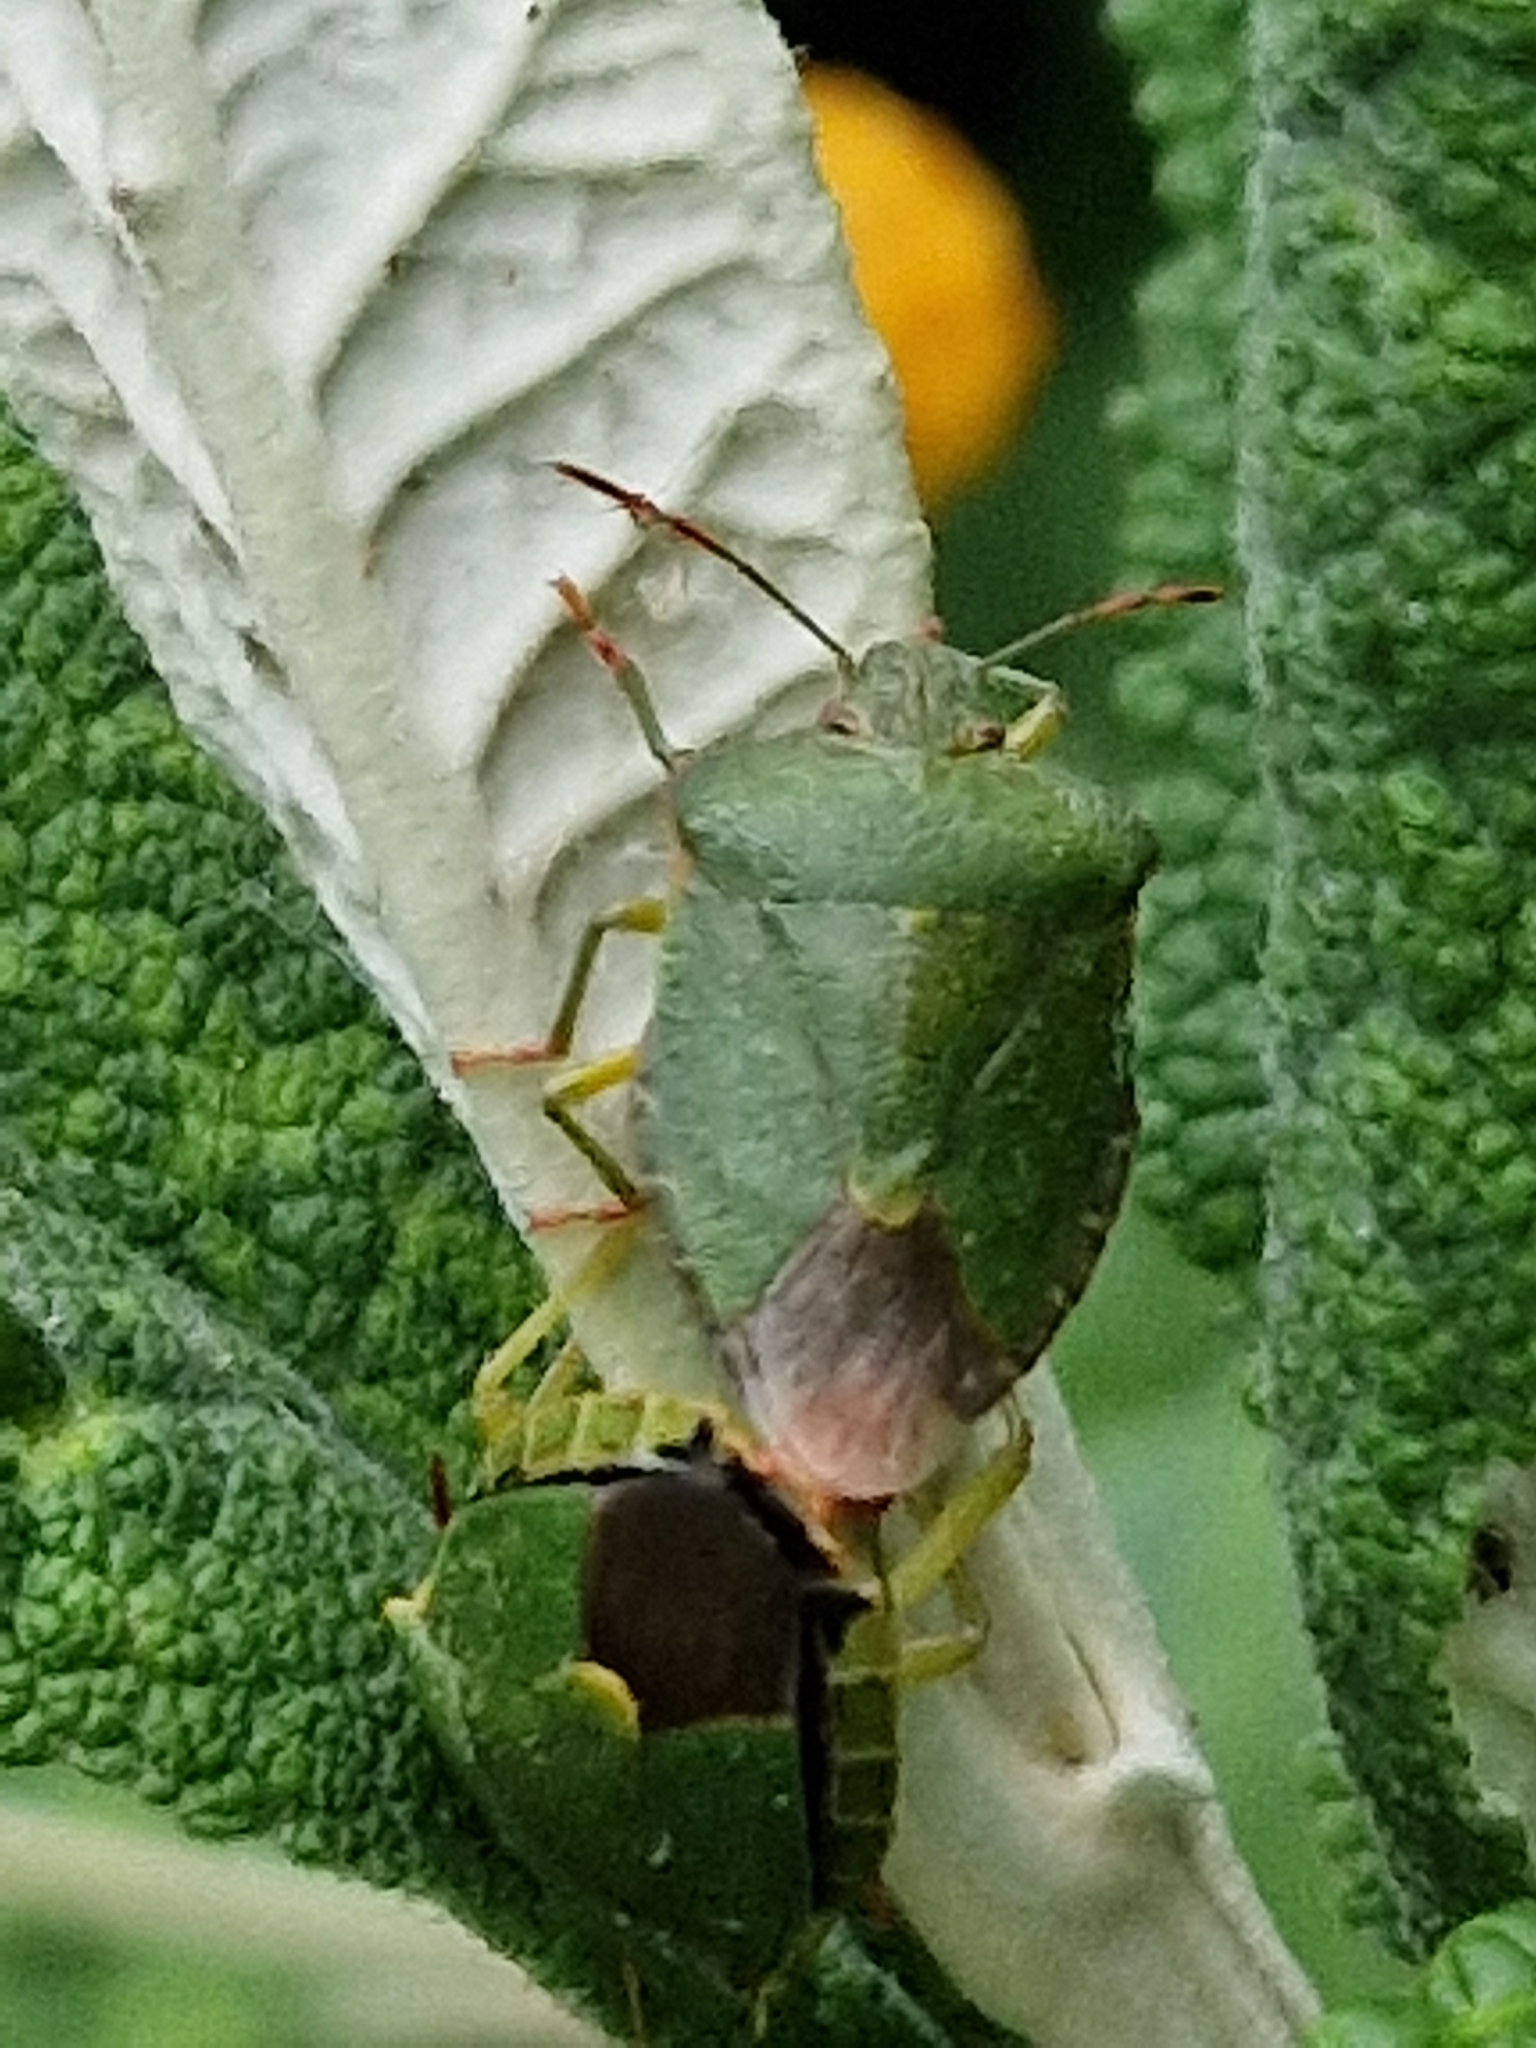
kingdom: Animalia
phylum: Arthropoda
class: Insecta
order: Hemiptera
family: Pentatomidae
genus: Palomena
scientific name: Palomena prasina
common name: Green shieldbug
